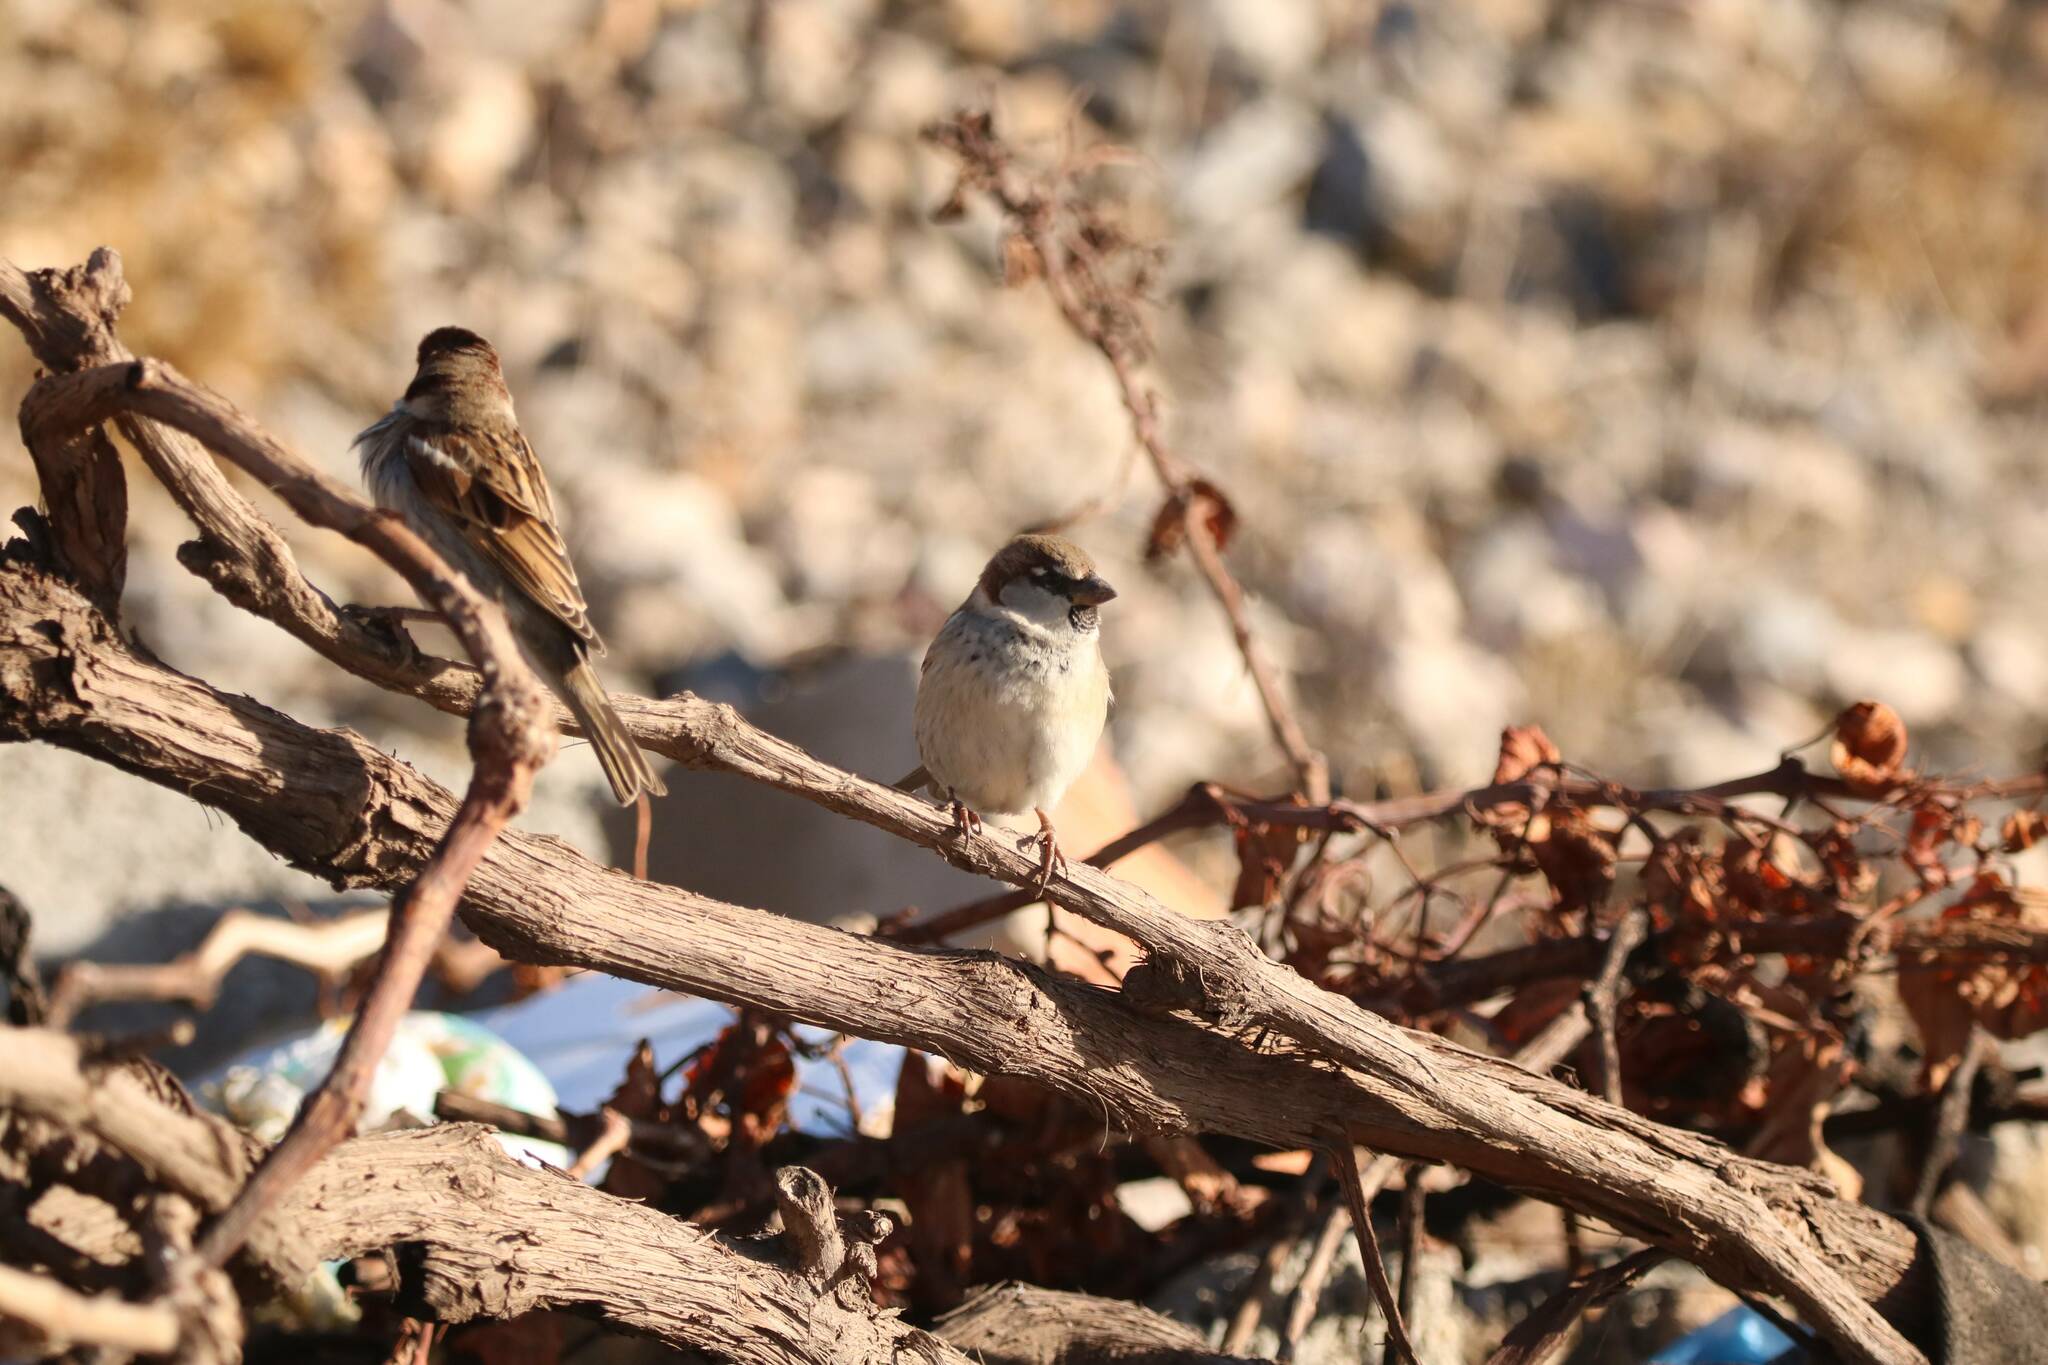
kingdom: Animalia
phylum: Chordata
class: Aves
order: Passeriformes
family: Passeridae
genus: Passer
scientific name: Passer domesticus
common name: House sparrow
